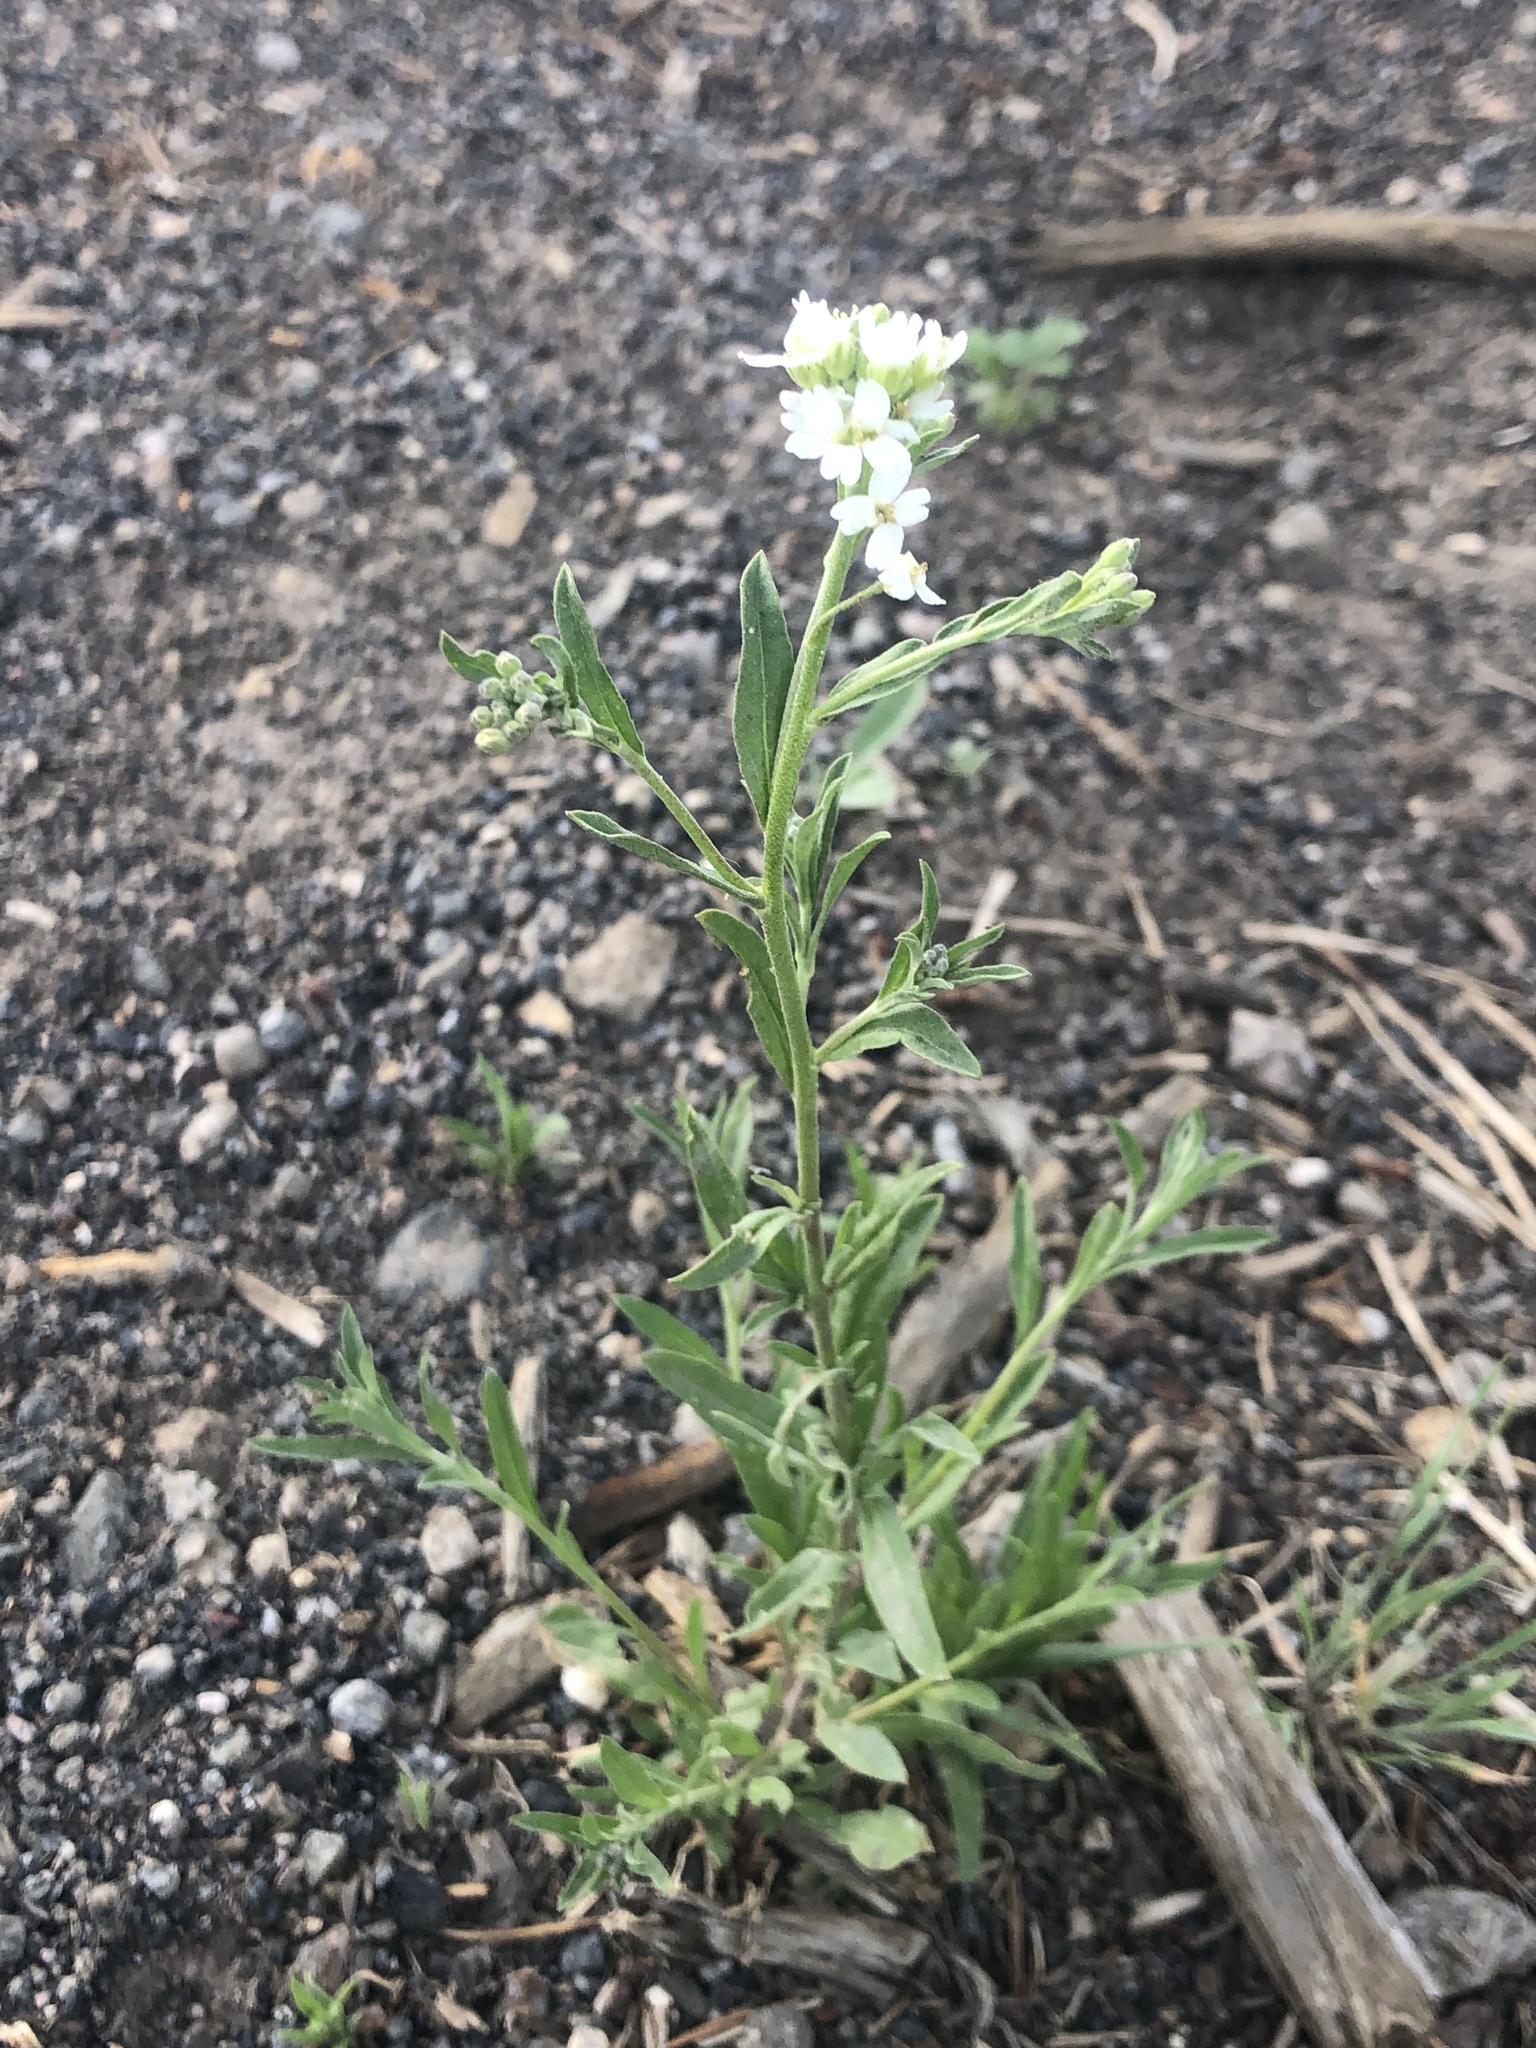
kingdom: Plantae
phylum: Tracheophyta
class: Magnoliopsida
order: Brassicales
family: Brassicaceae
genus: Berteroa
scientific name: Berteroa incana
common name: Hoary alison
